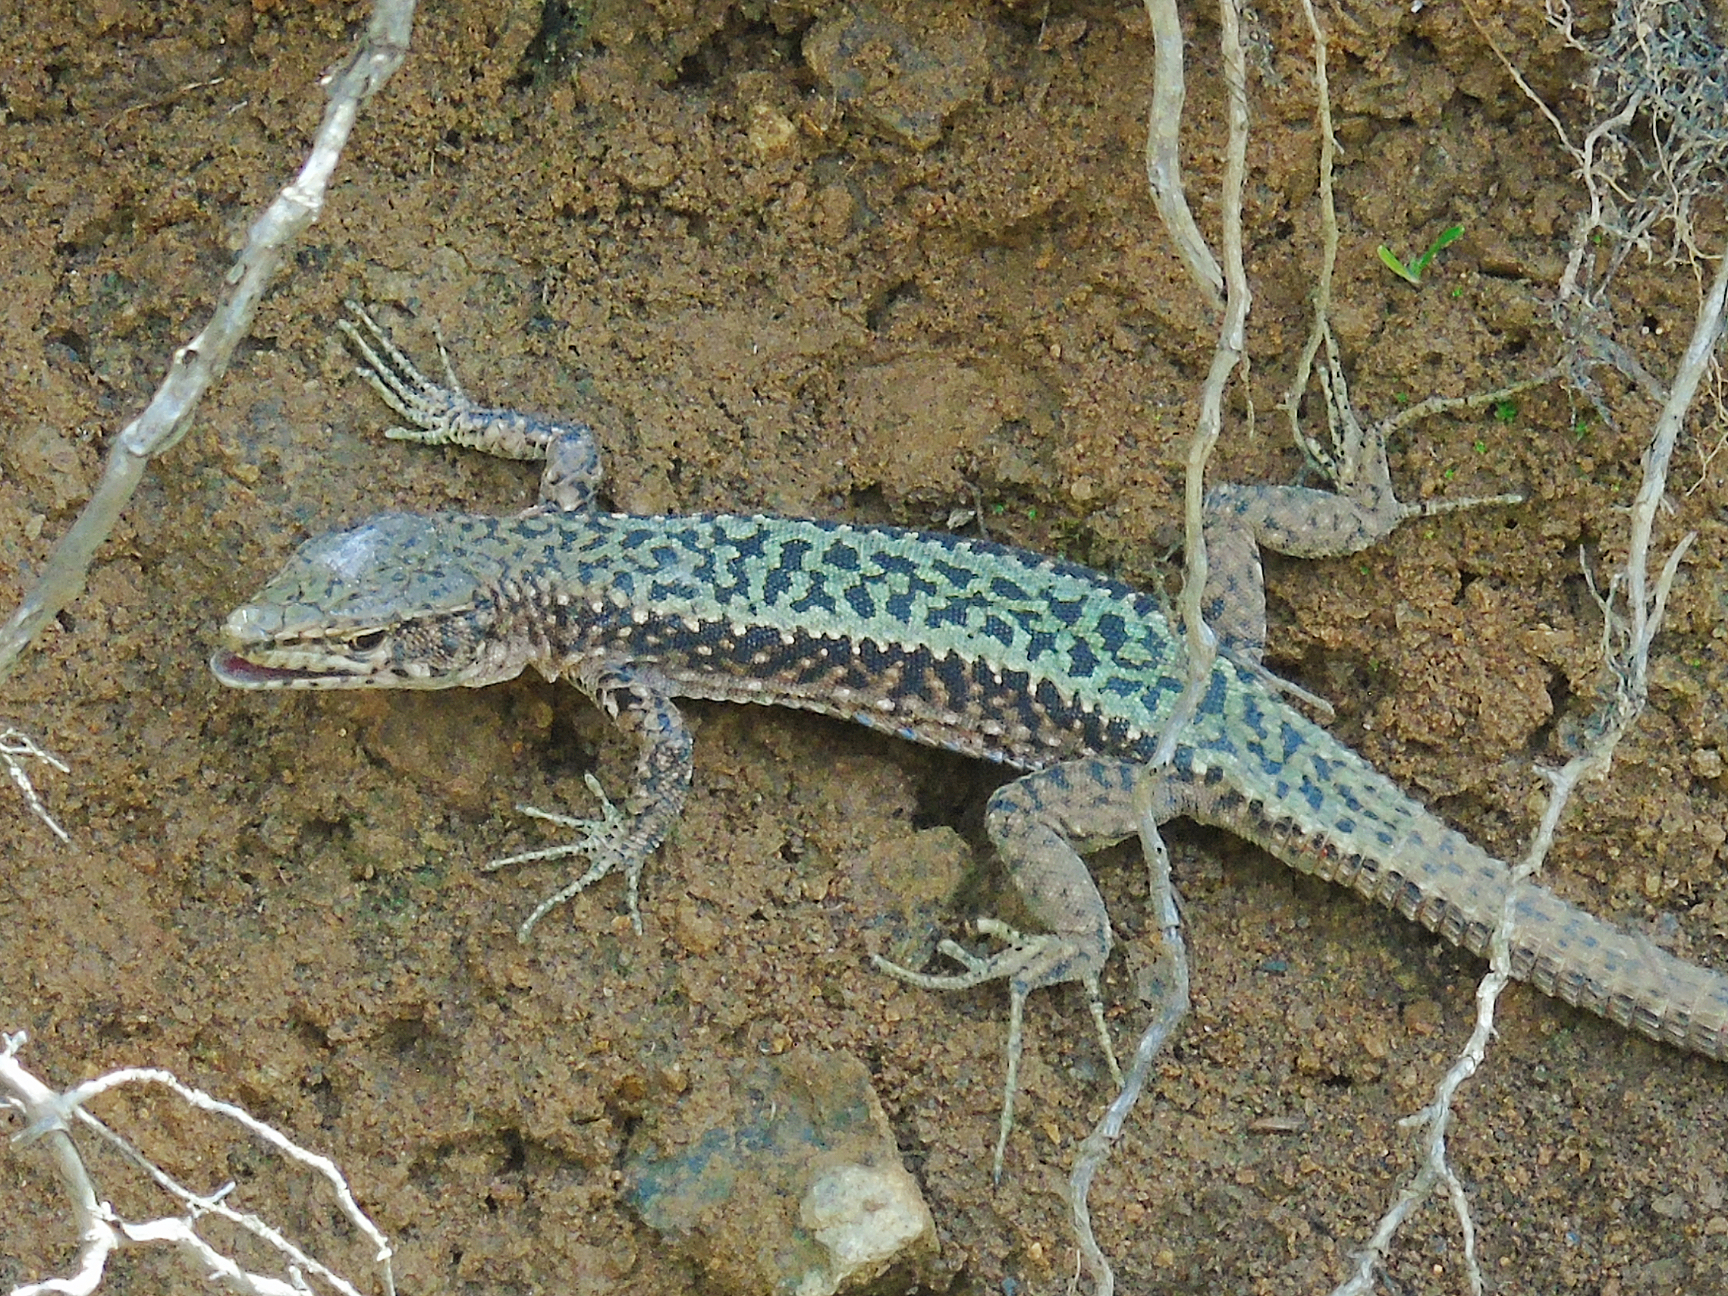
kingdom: Animalia
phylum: Chordata
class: Squamata
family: Lacertidae
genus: Darevskia
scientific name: Darevskia brauneri
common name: Brauner's rock lizard
